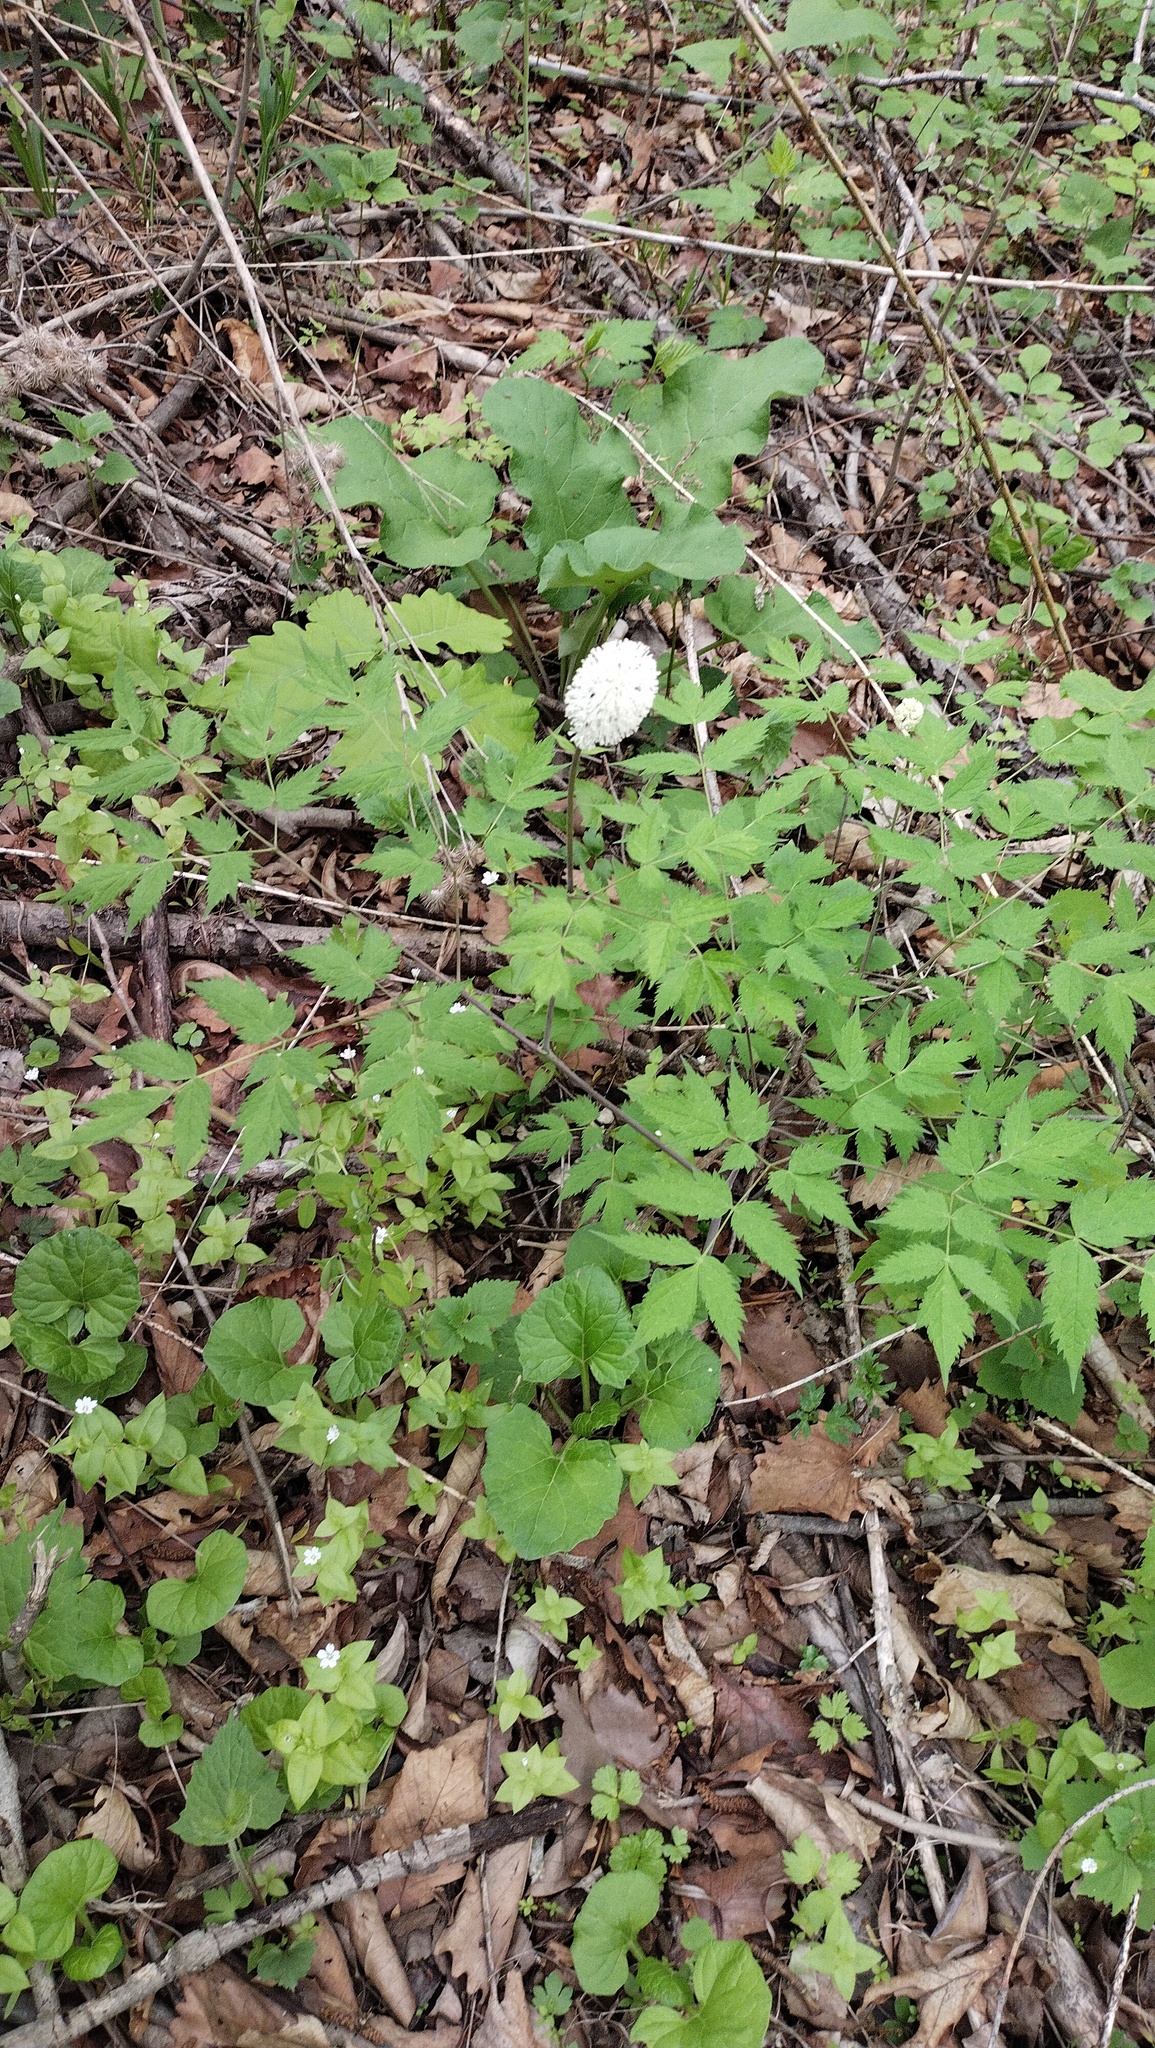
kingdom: Plantae
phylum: Tracheophyta
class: Magnoliopsida
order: Ranunculales
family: Ranunculaceae
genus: Actaea
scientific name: Actaea asiatica
